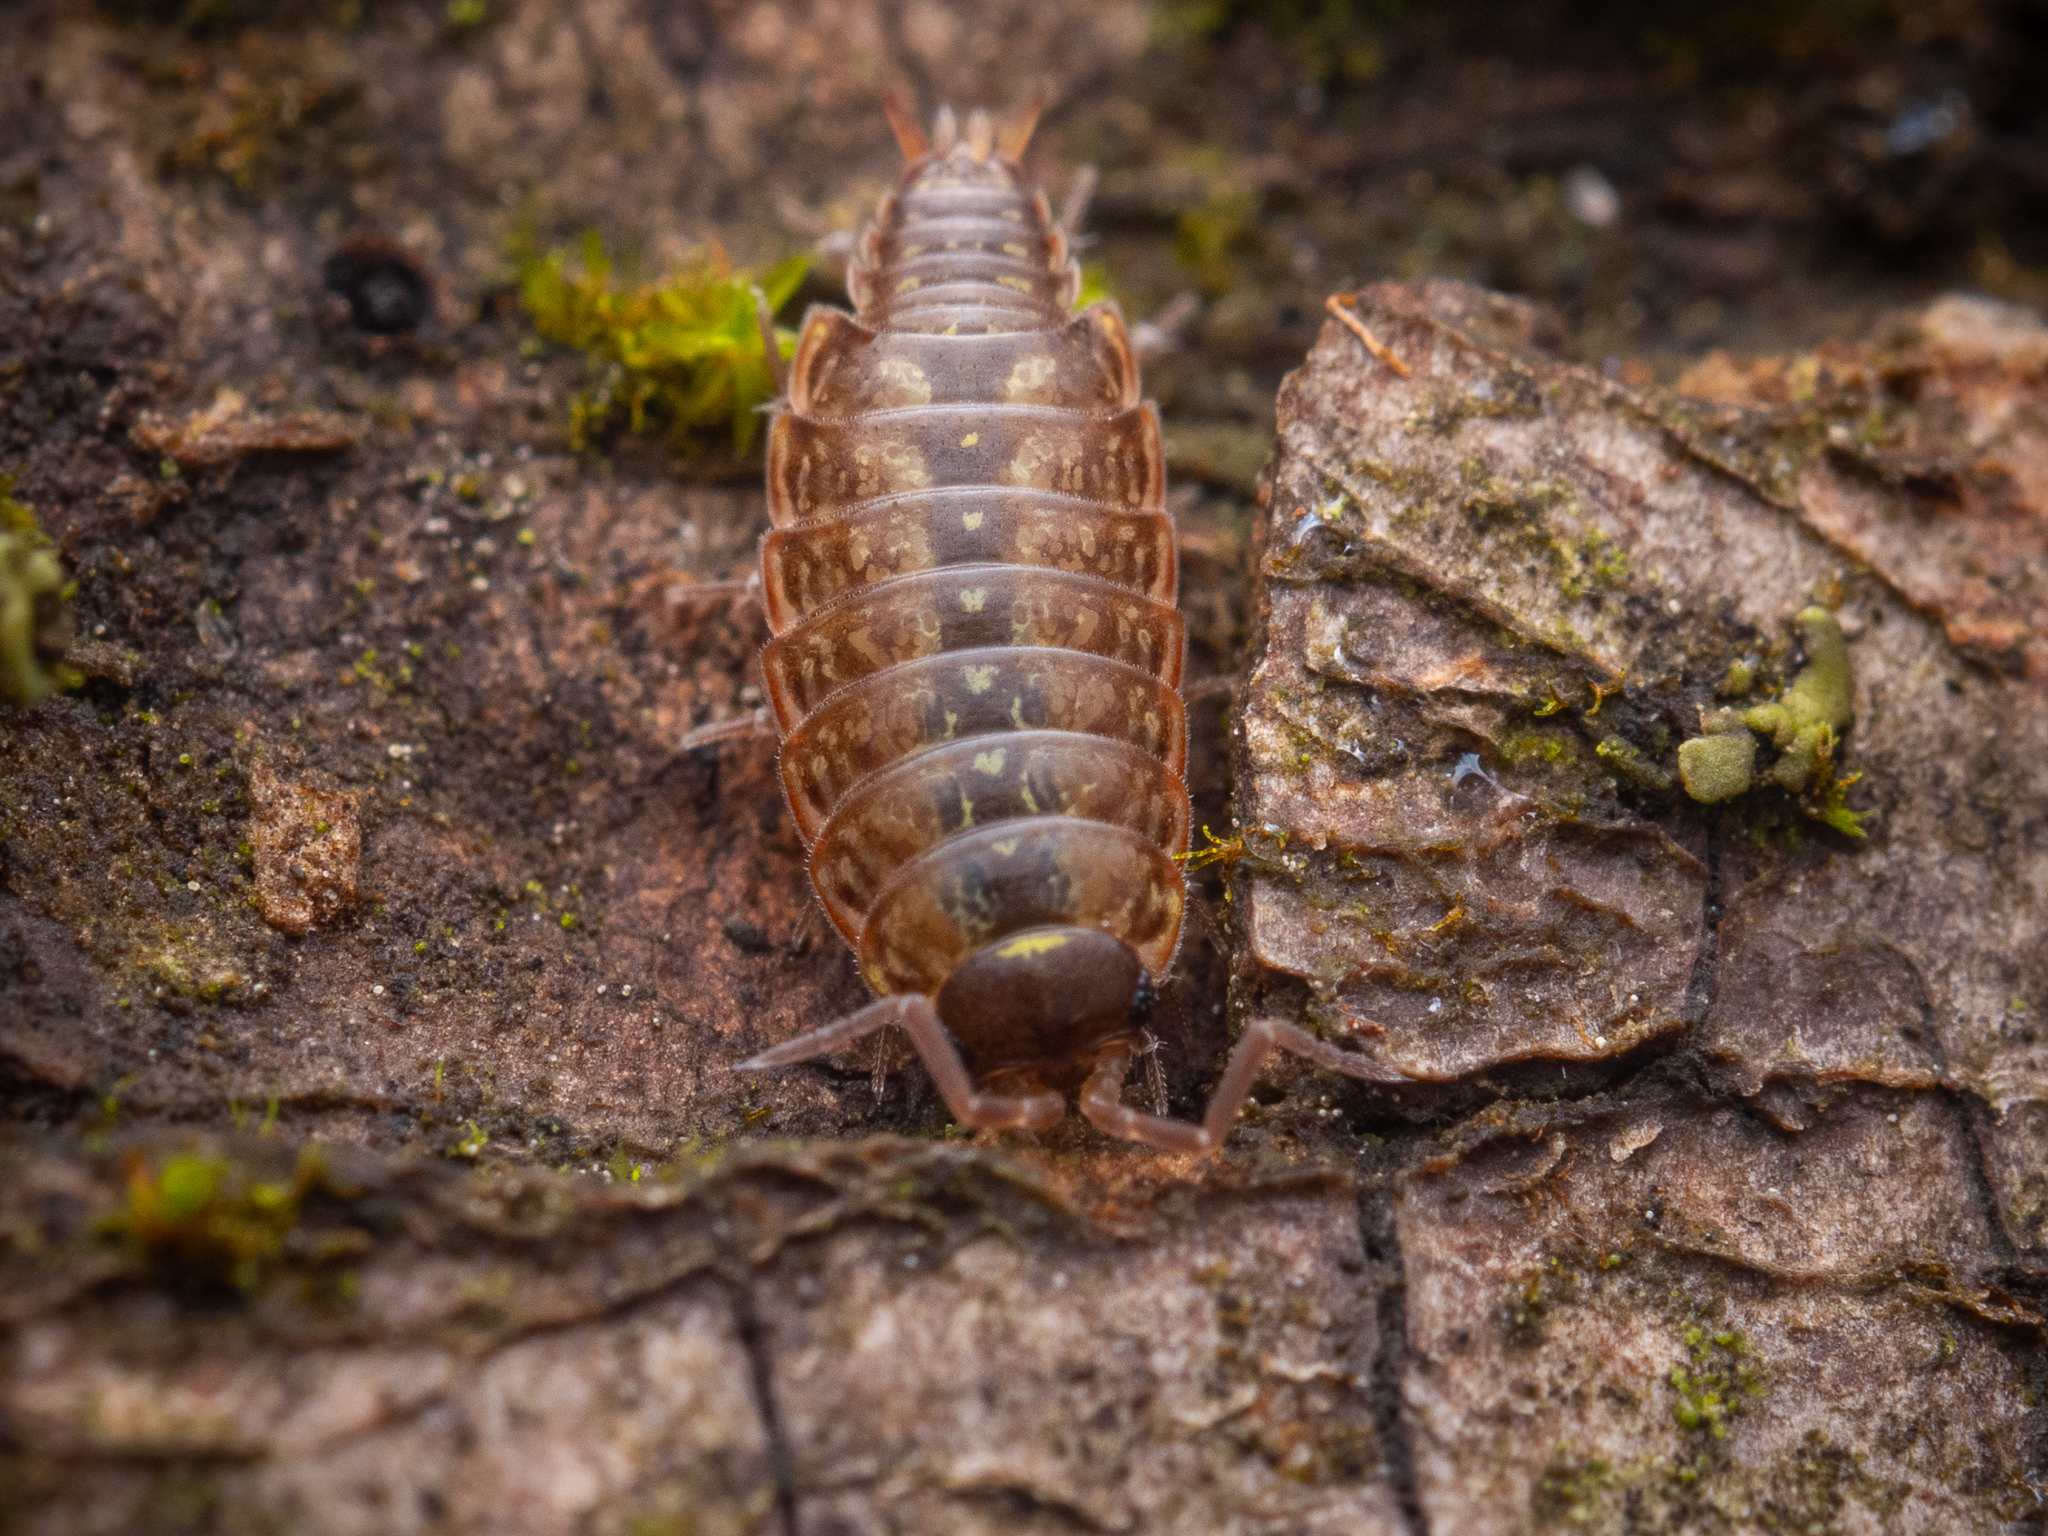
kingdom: Animalia
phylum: Arthropoda
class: Malacostraca
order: Isopoda
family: Philosciidae
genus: Philoscia
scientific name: Philoscia muscorum
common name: Common striped woodlouse
